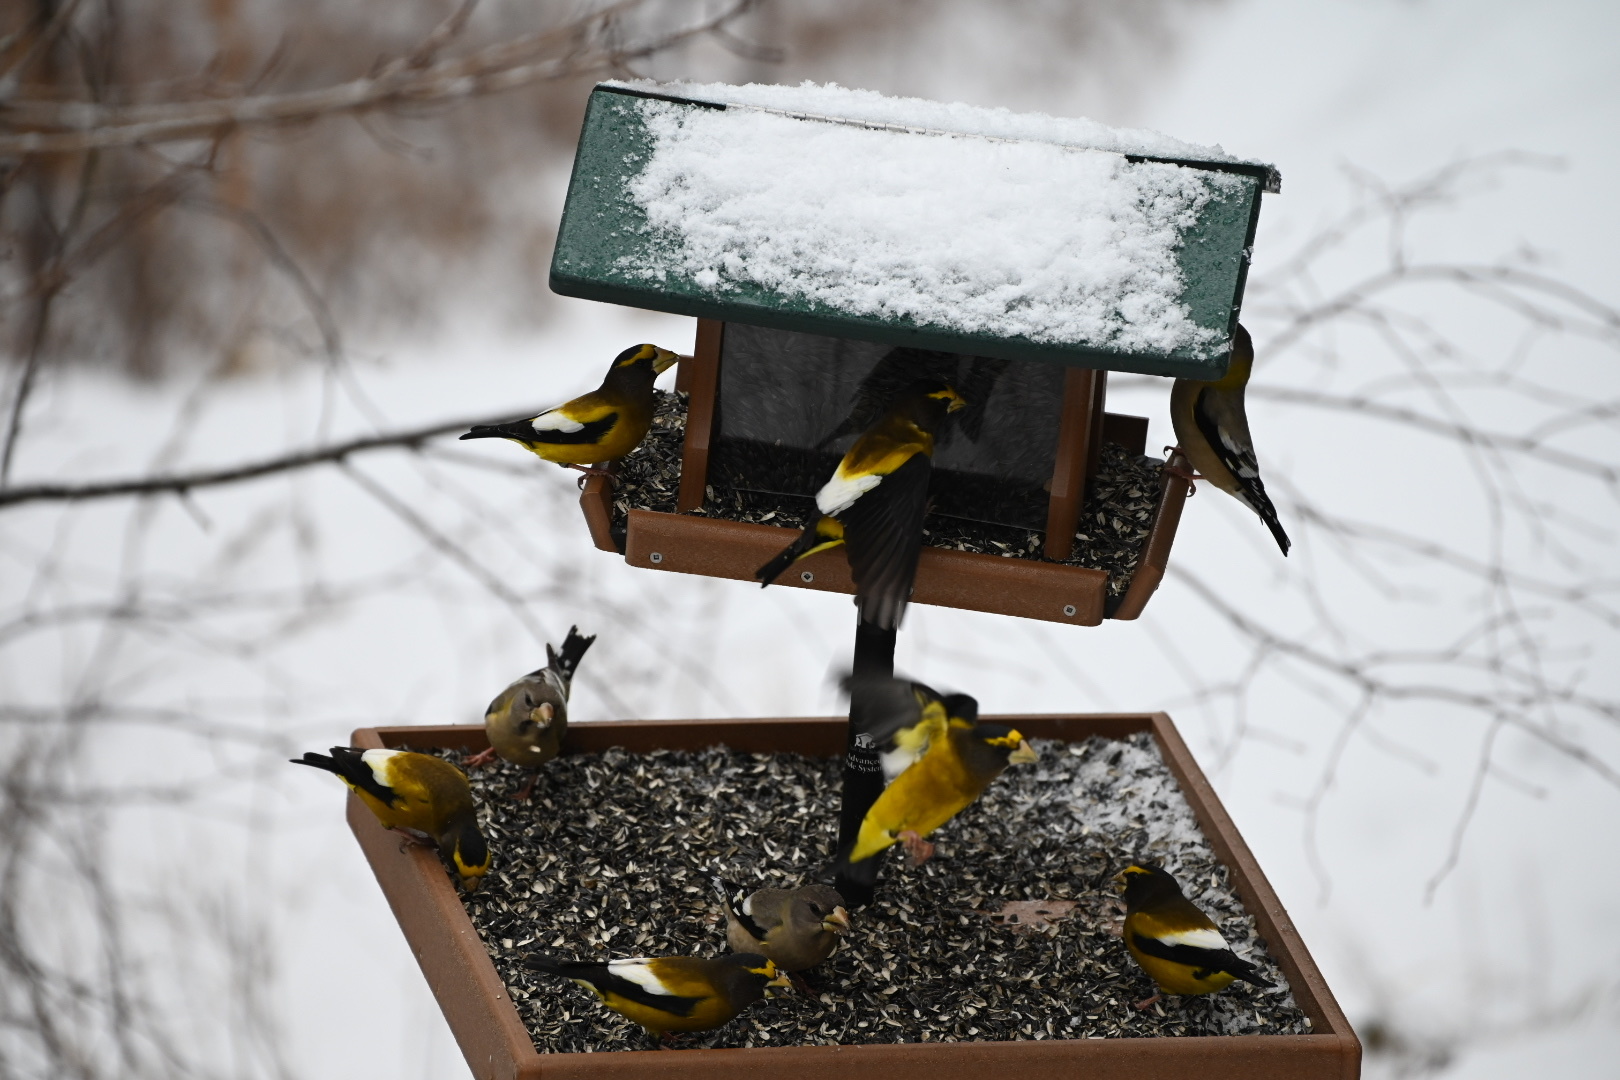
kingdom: Animalia
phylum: Chordata
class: Aves
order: Passeriformes
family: Fringillidae
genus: Hesperiphona
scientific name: Hesperiphona vespertina
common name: Evening grosbeak
